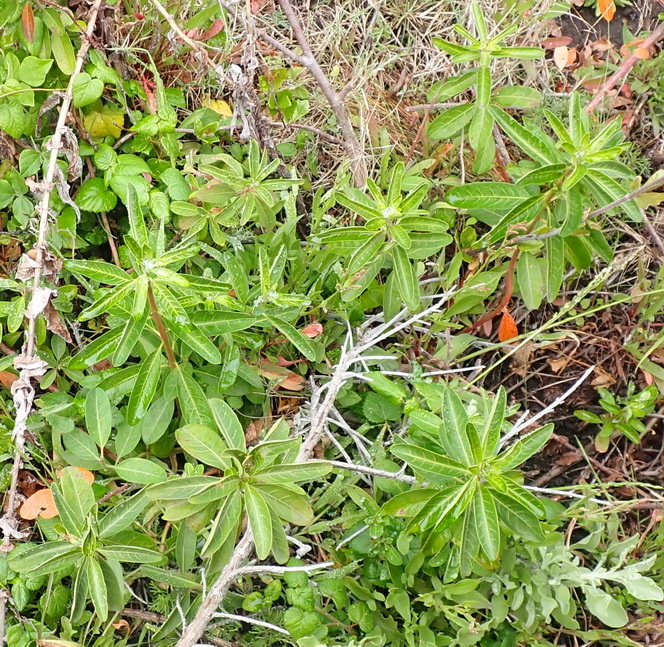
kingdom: Plantae
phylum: Tracheophyta
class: Magnoliopsida
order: Malpighiales
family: Peraceae
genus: Clutia
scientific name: Clutia affinis
